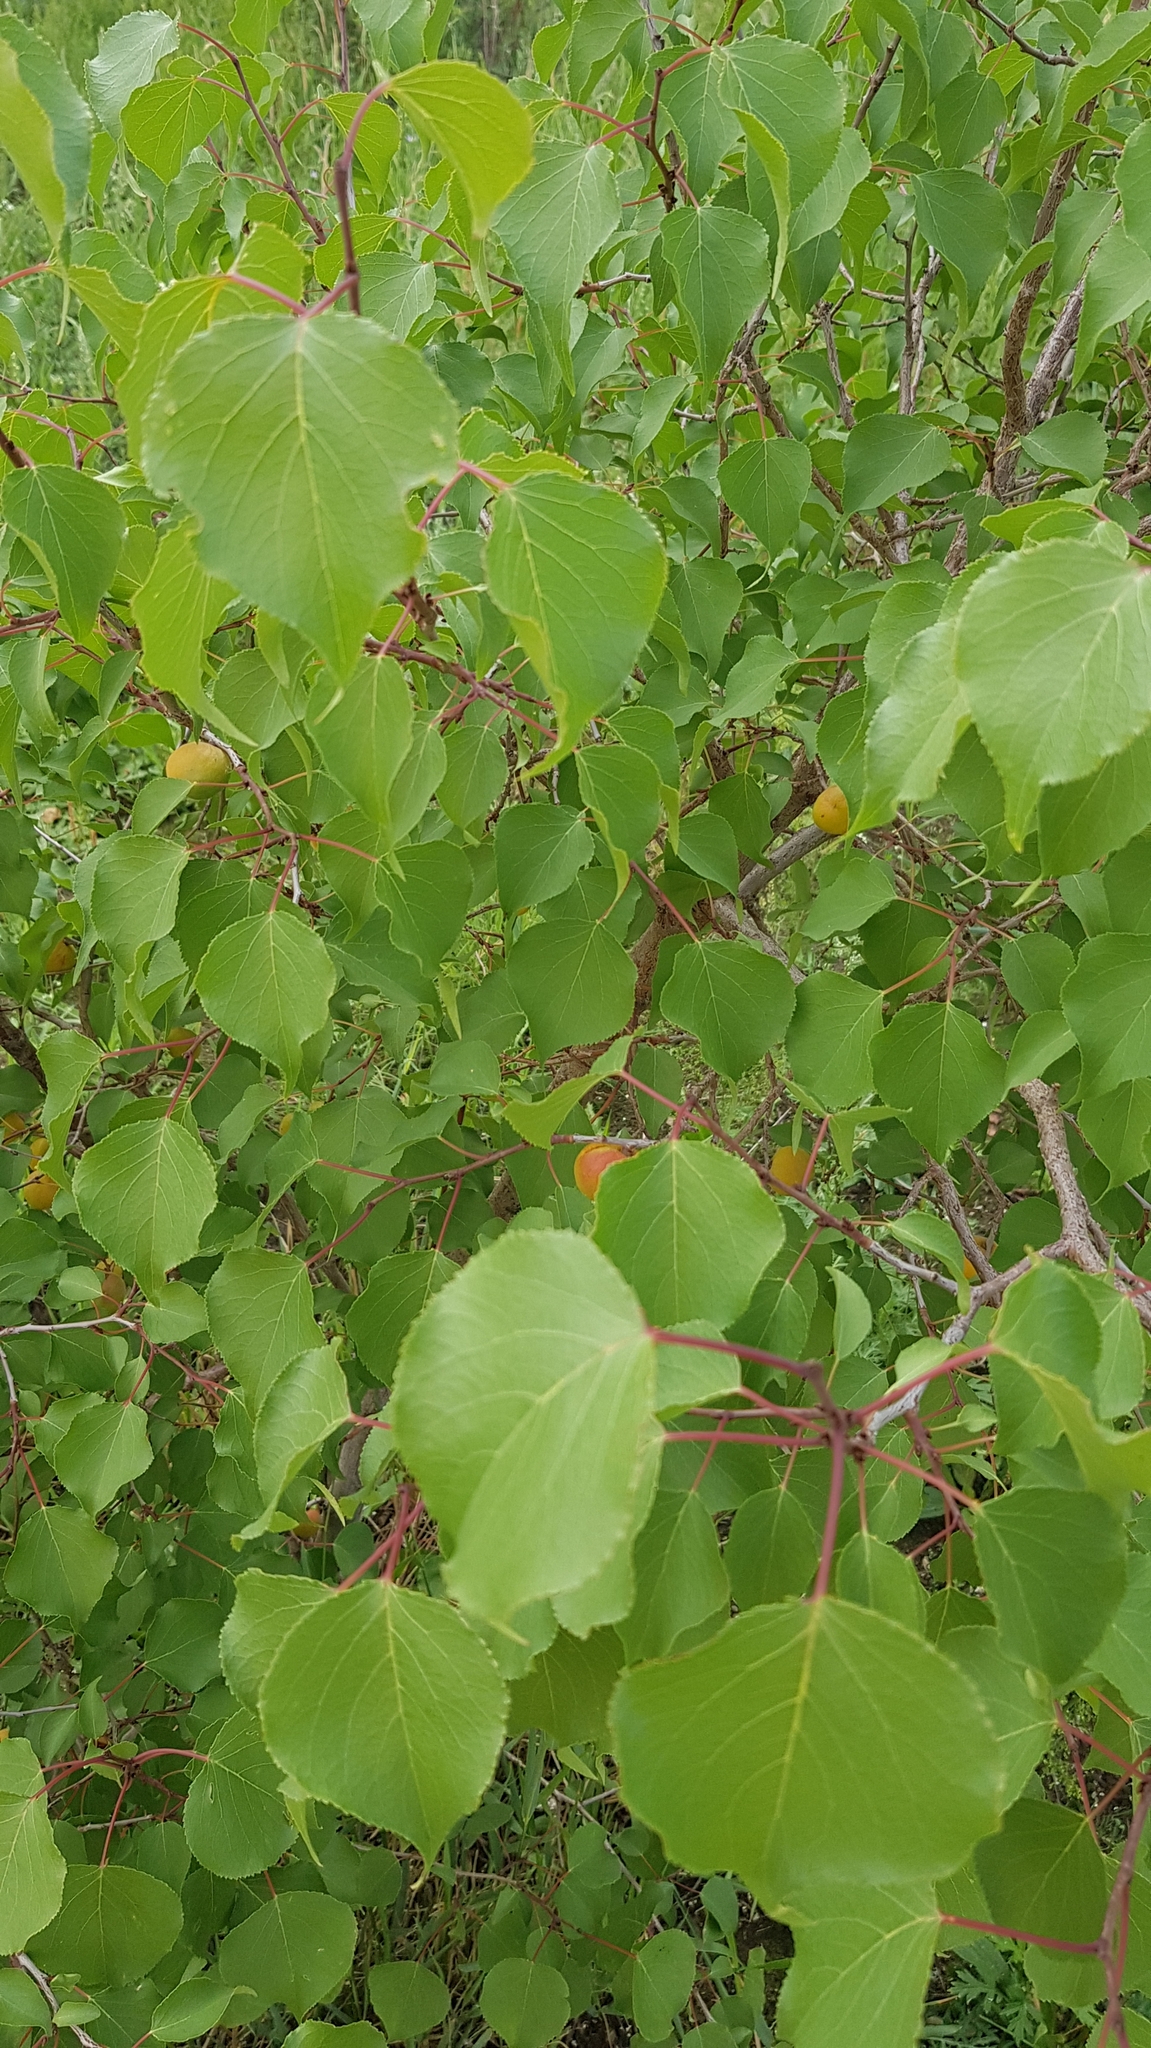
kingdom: Plantae
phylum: Tracheophyta
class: Magnoliopsida
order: Rosales
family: Rosaceae
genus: Prunus
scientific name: Prunus armeniaca
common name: Apricot
